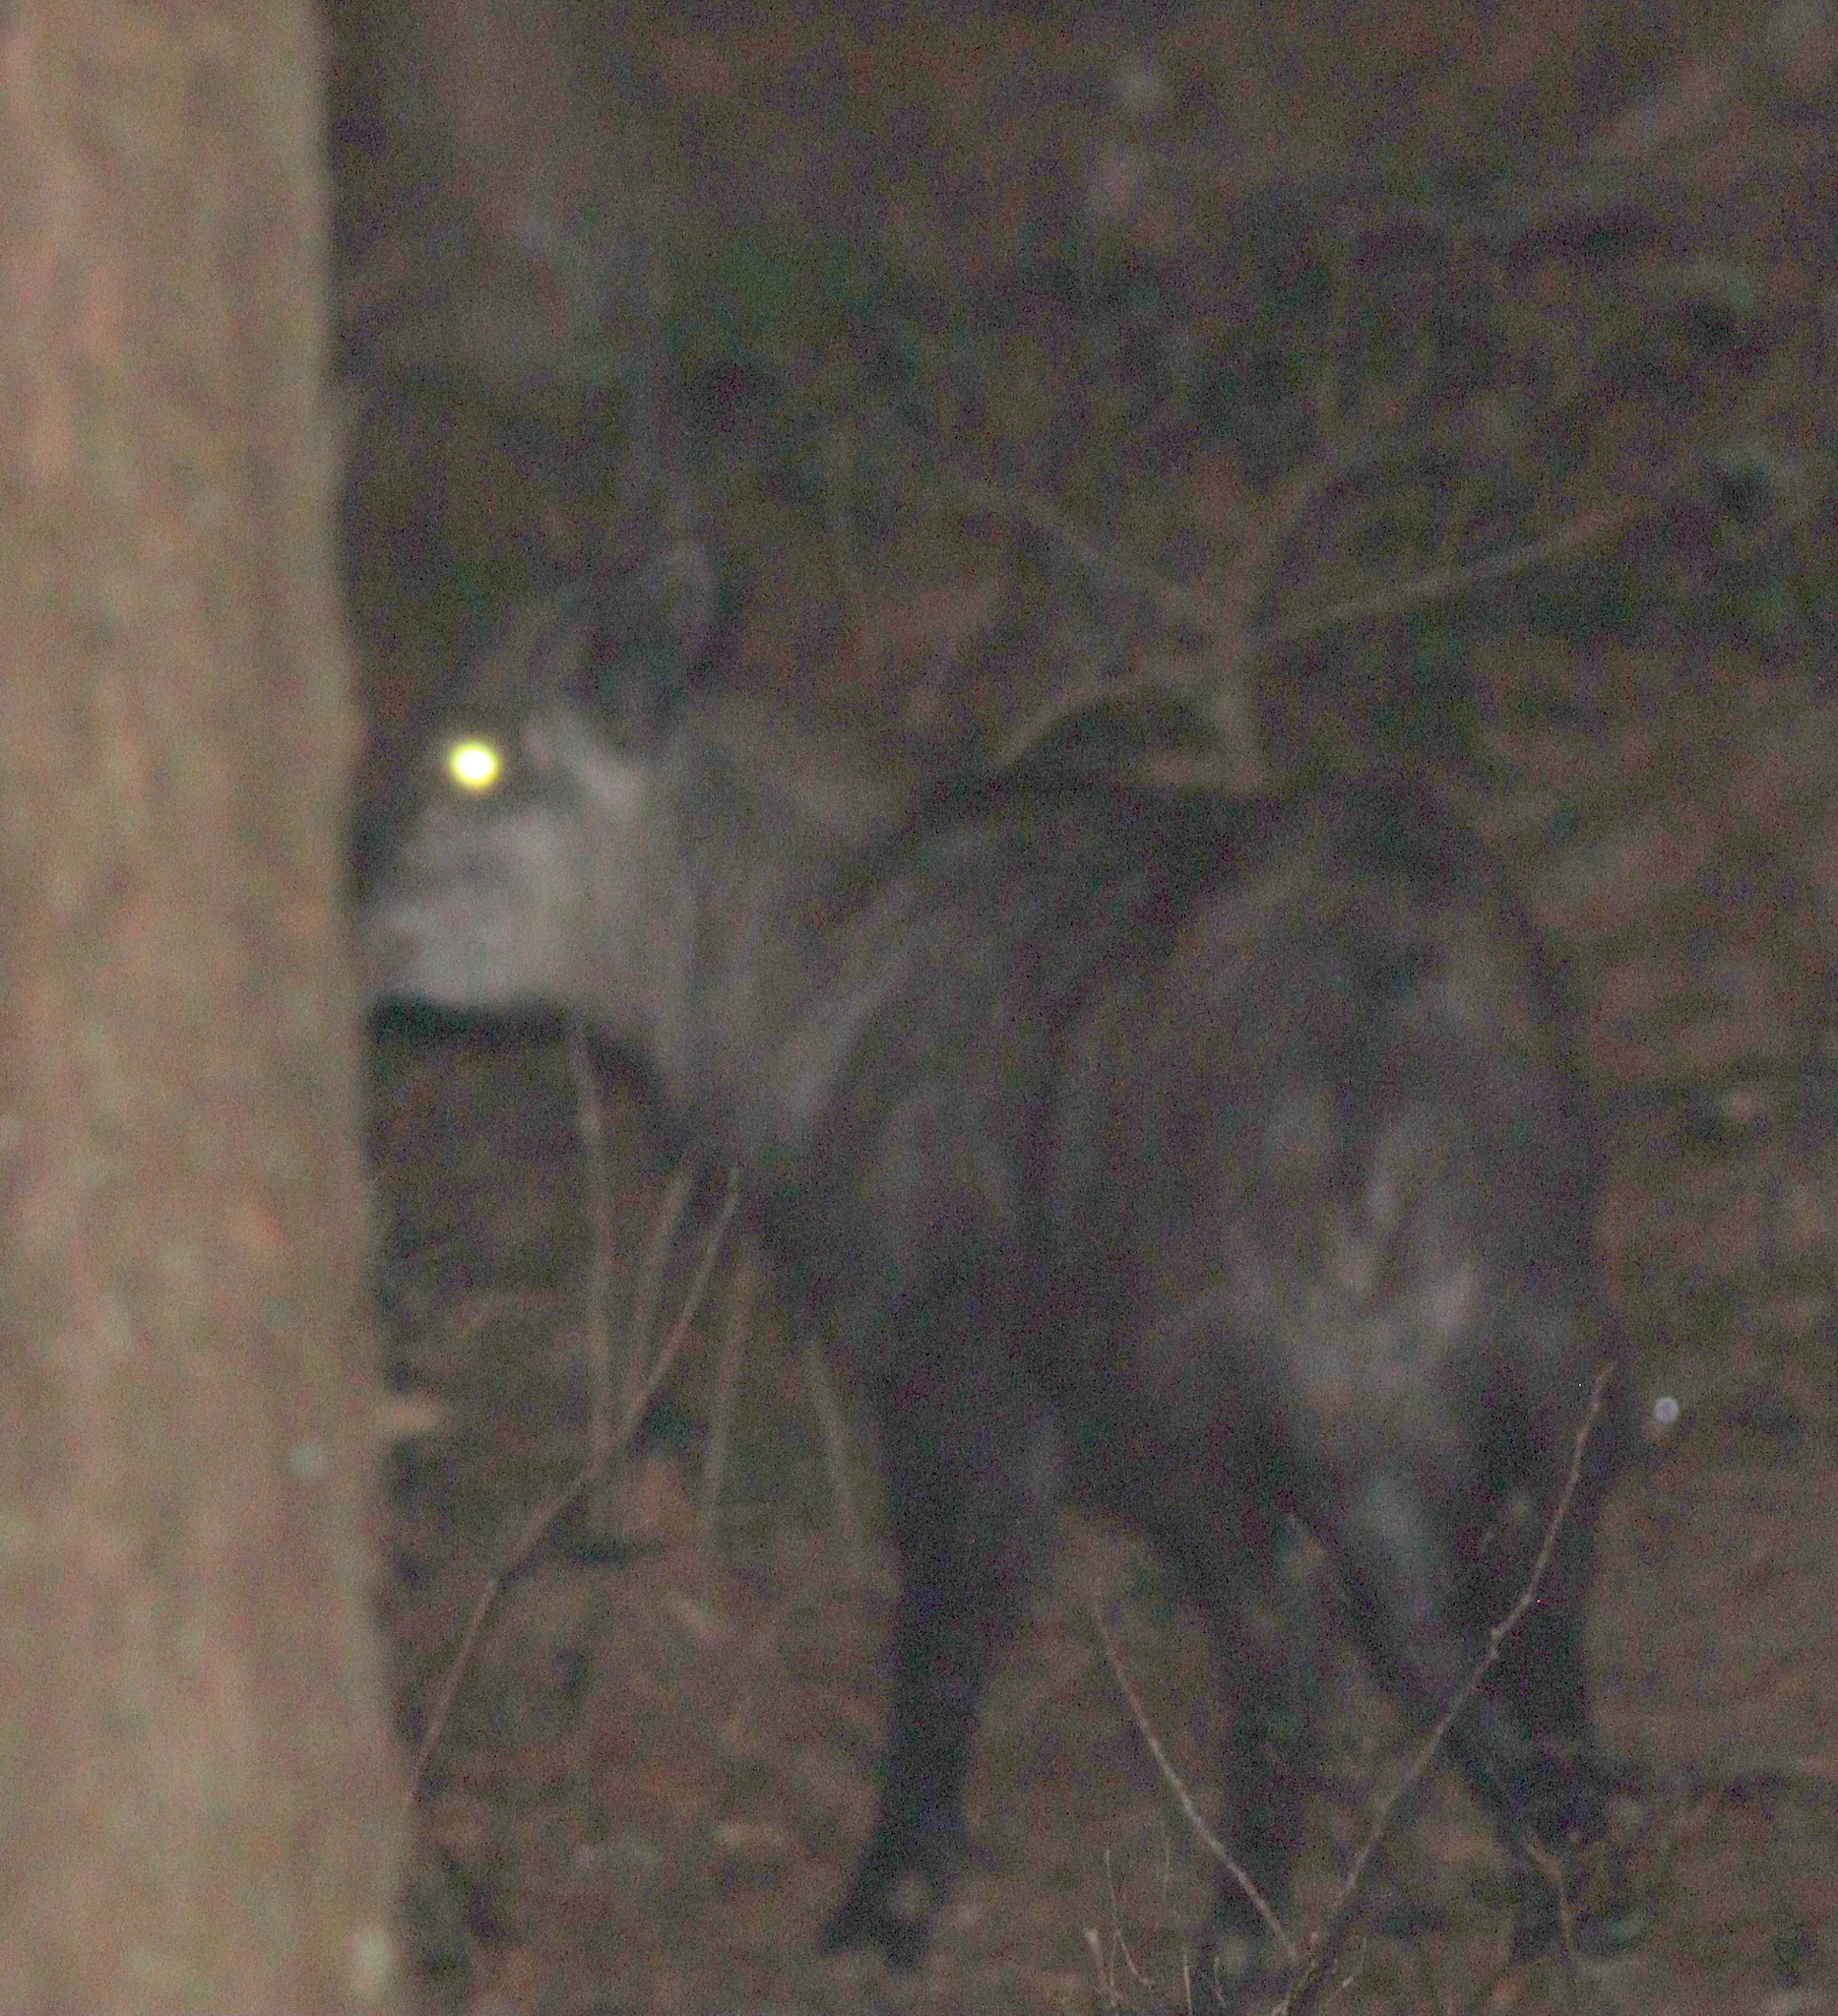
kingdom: Animalia
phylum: Chordata
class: Mammalia
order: Artiodactyla
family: Bovidae
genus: Capricornis
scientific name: Capricornis crispus
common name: Japanese serow
